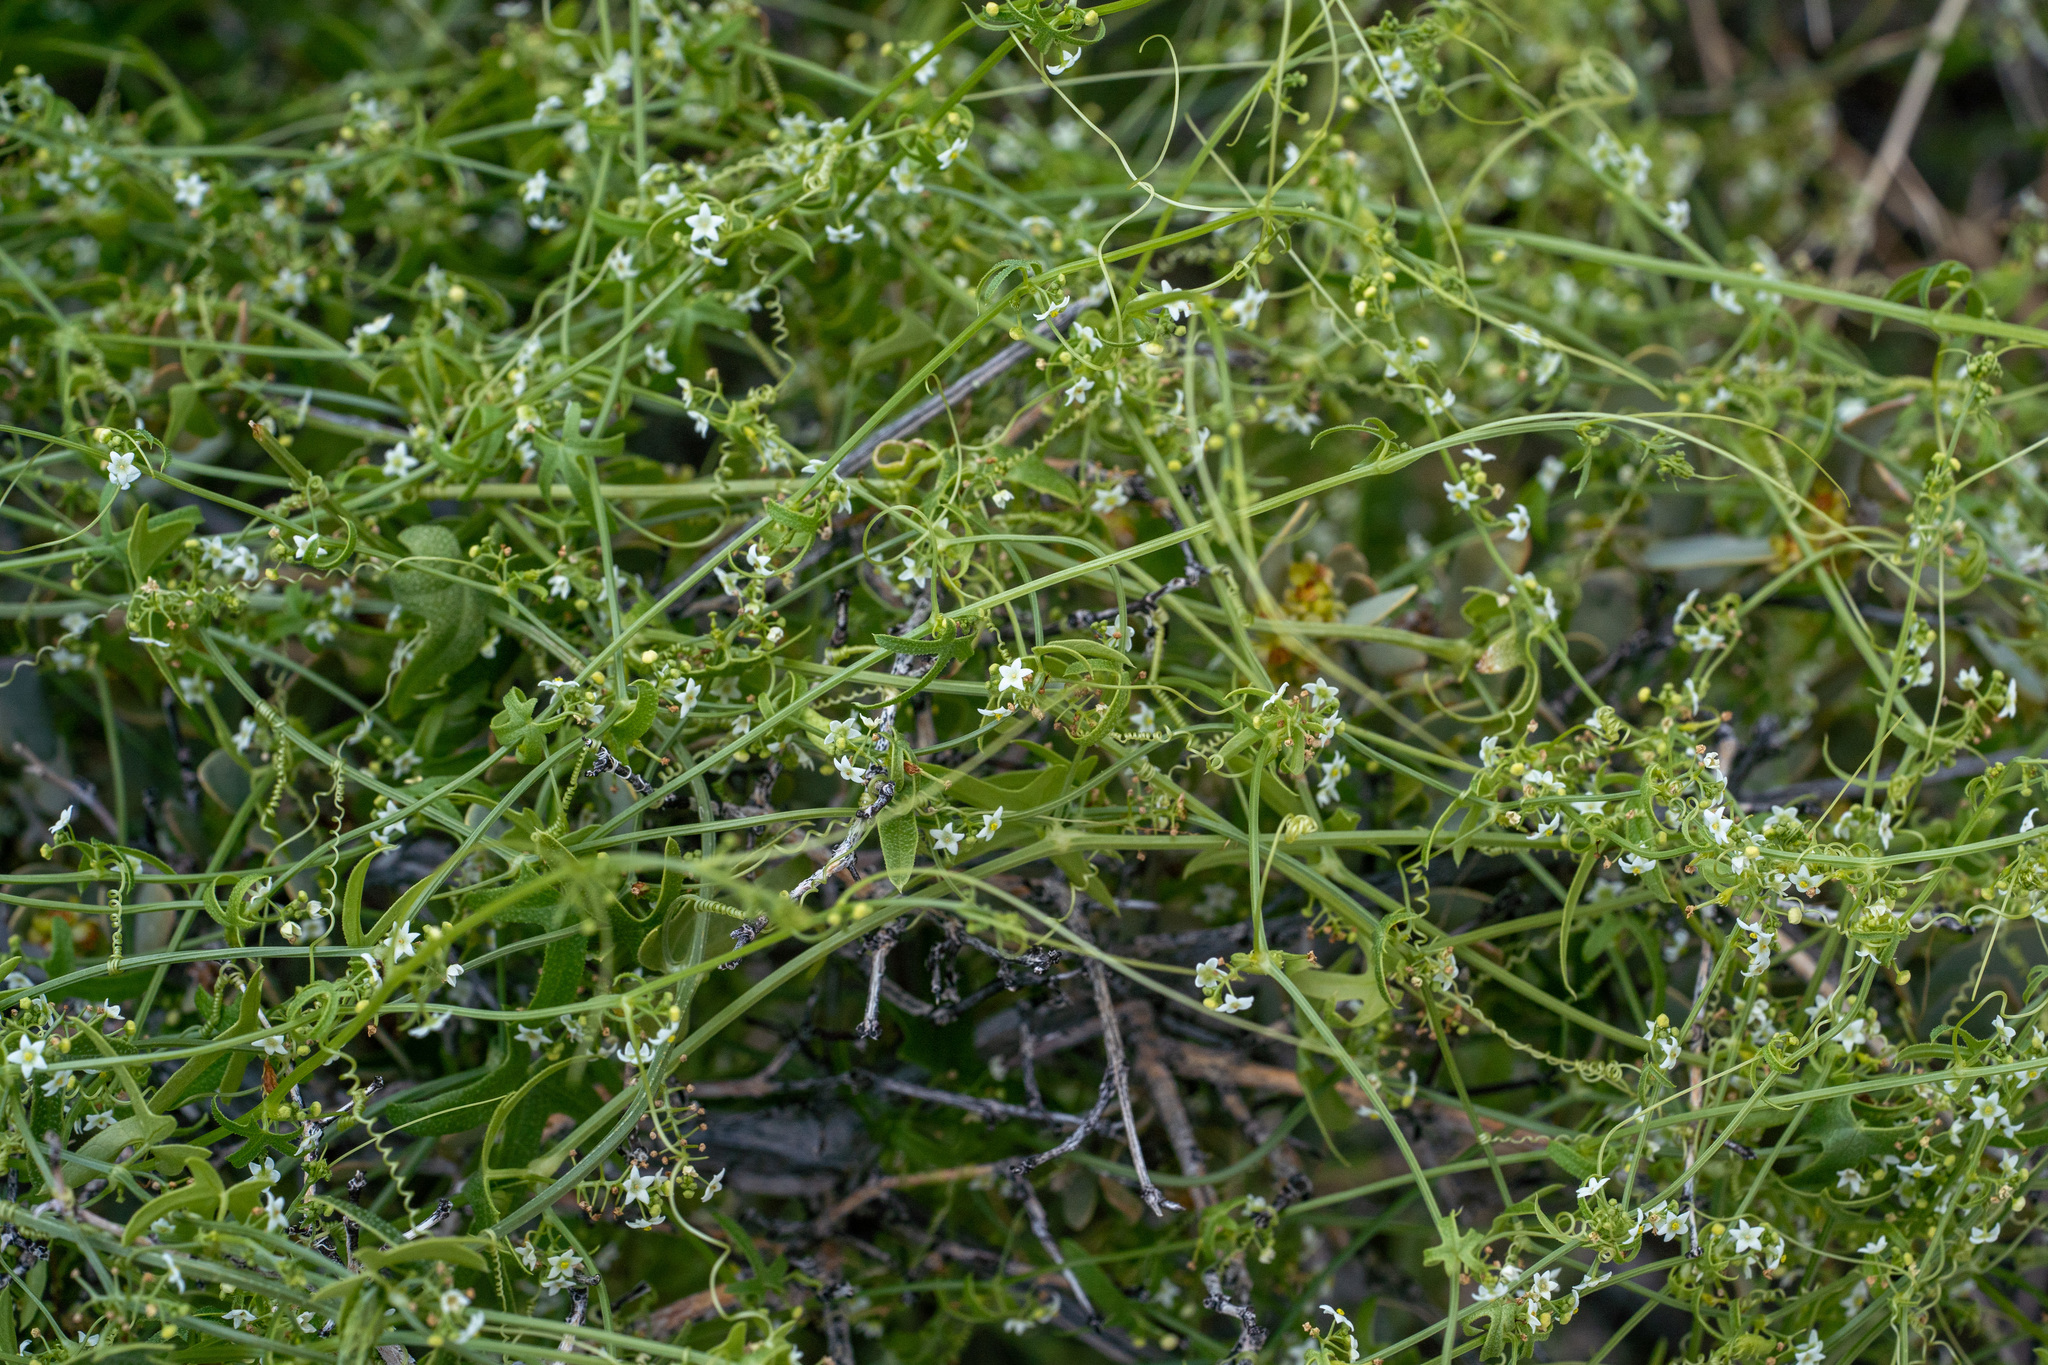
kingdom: Plantae
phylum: Tracheophyta
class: Magnoliopsida
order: Cucurbitales
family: Cucurbitaceae
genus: Echinopepon
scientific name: Echinopepon bigelovii
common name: Desert starvine
